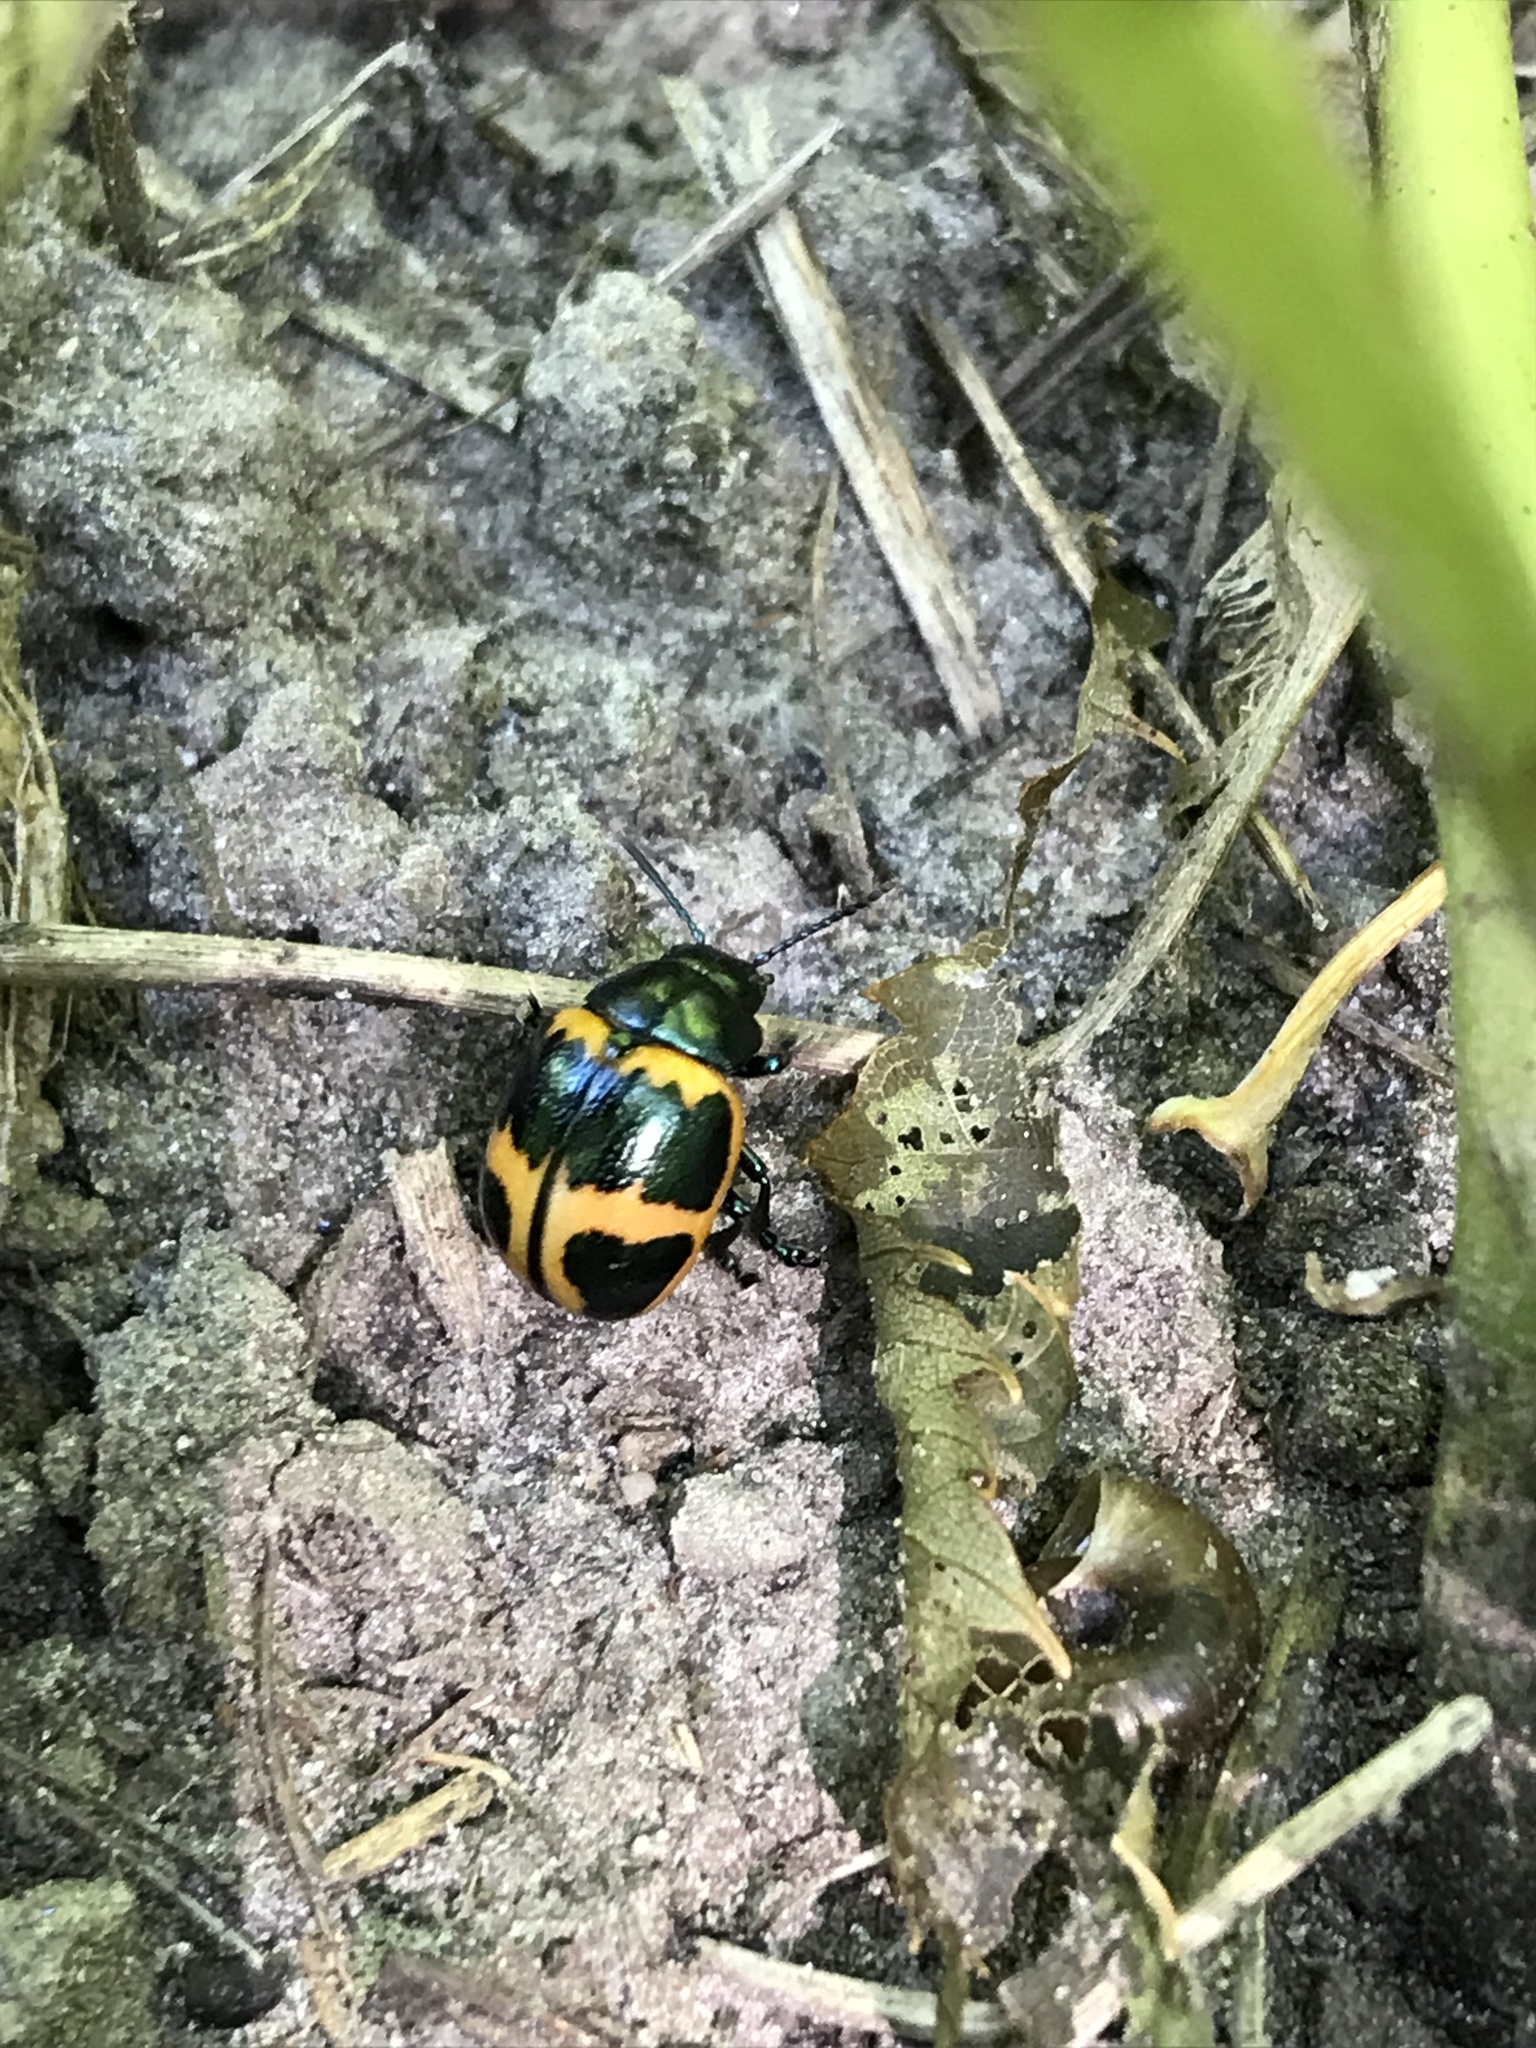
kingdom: Animalia
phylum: Arthropoda
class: Insecta
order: Coleoptera
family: Chrysomelidae
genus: Labidomera
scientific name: Labidomera clivicollis
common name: Swamp milkweed leaf beetle
